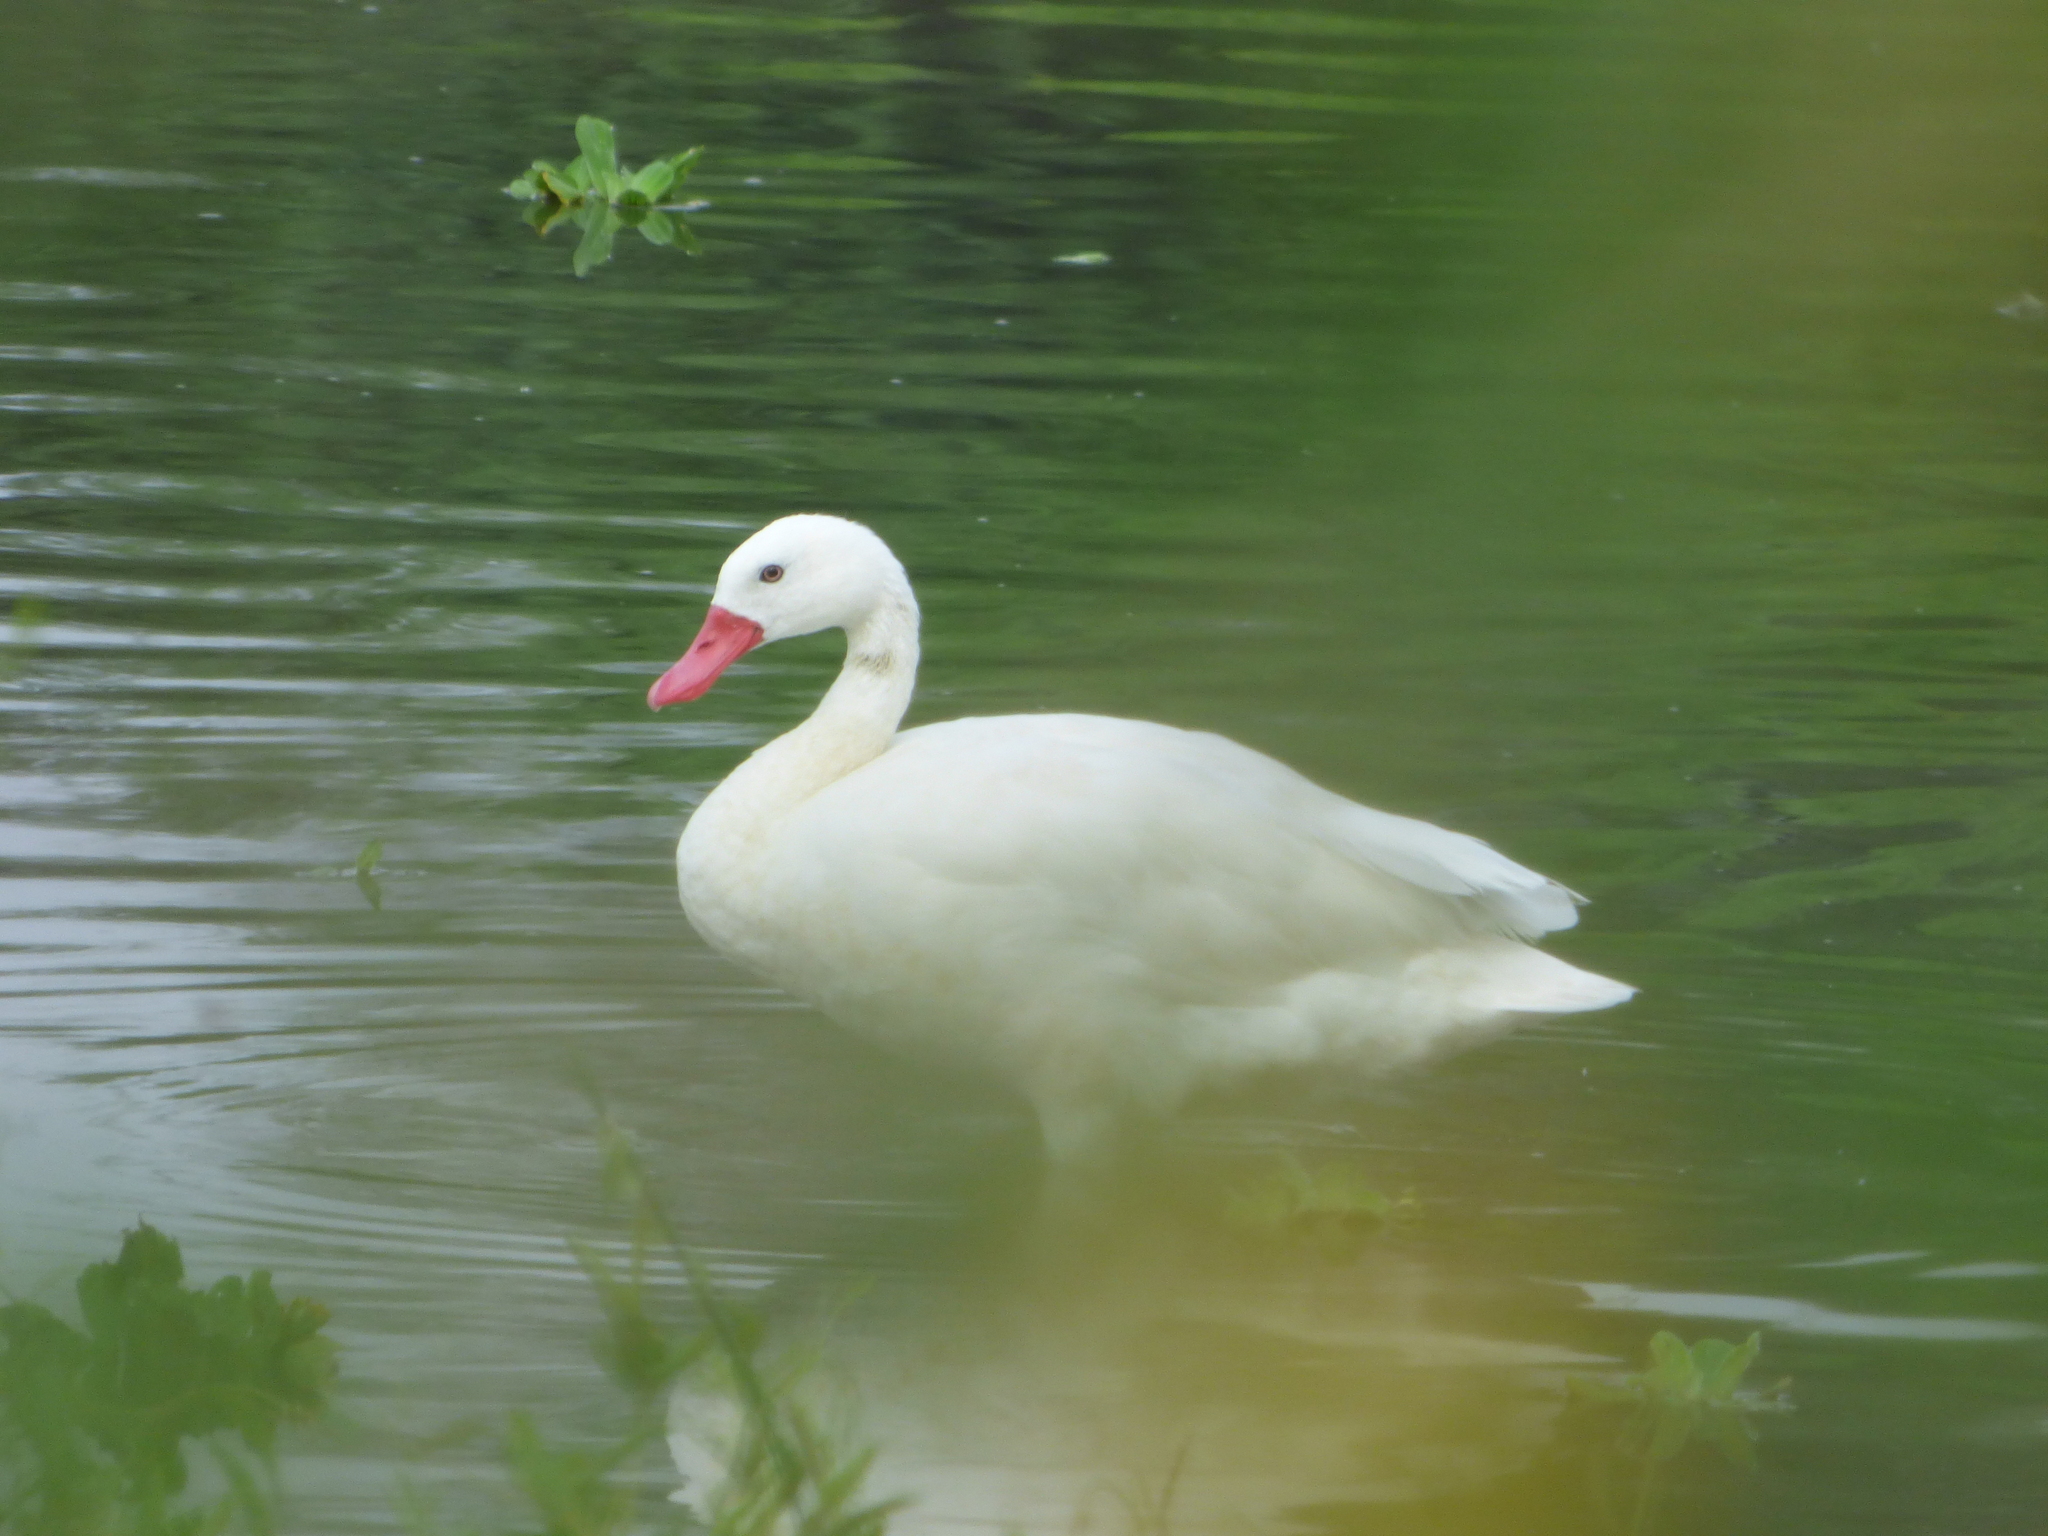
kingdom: Animalia
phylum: Chordata
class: Aves
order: Anseriformes
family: Anatidae
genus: Coscoroba
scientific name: Coscoroba coscoroba
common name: Coscoroba swan
